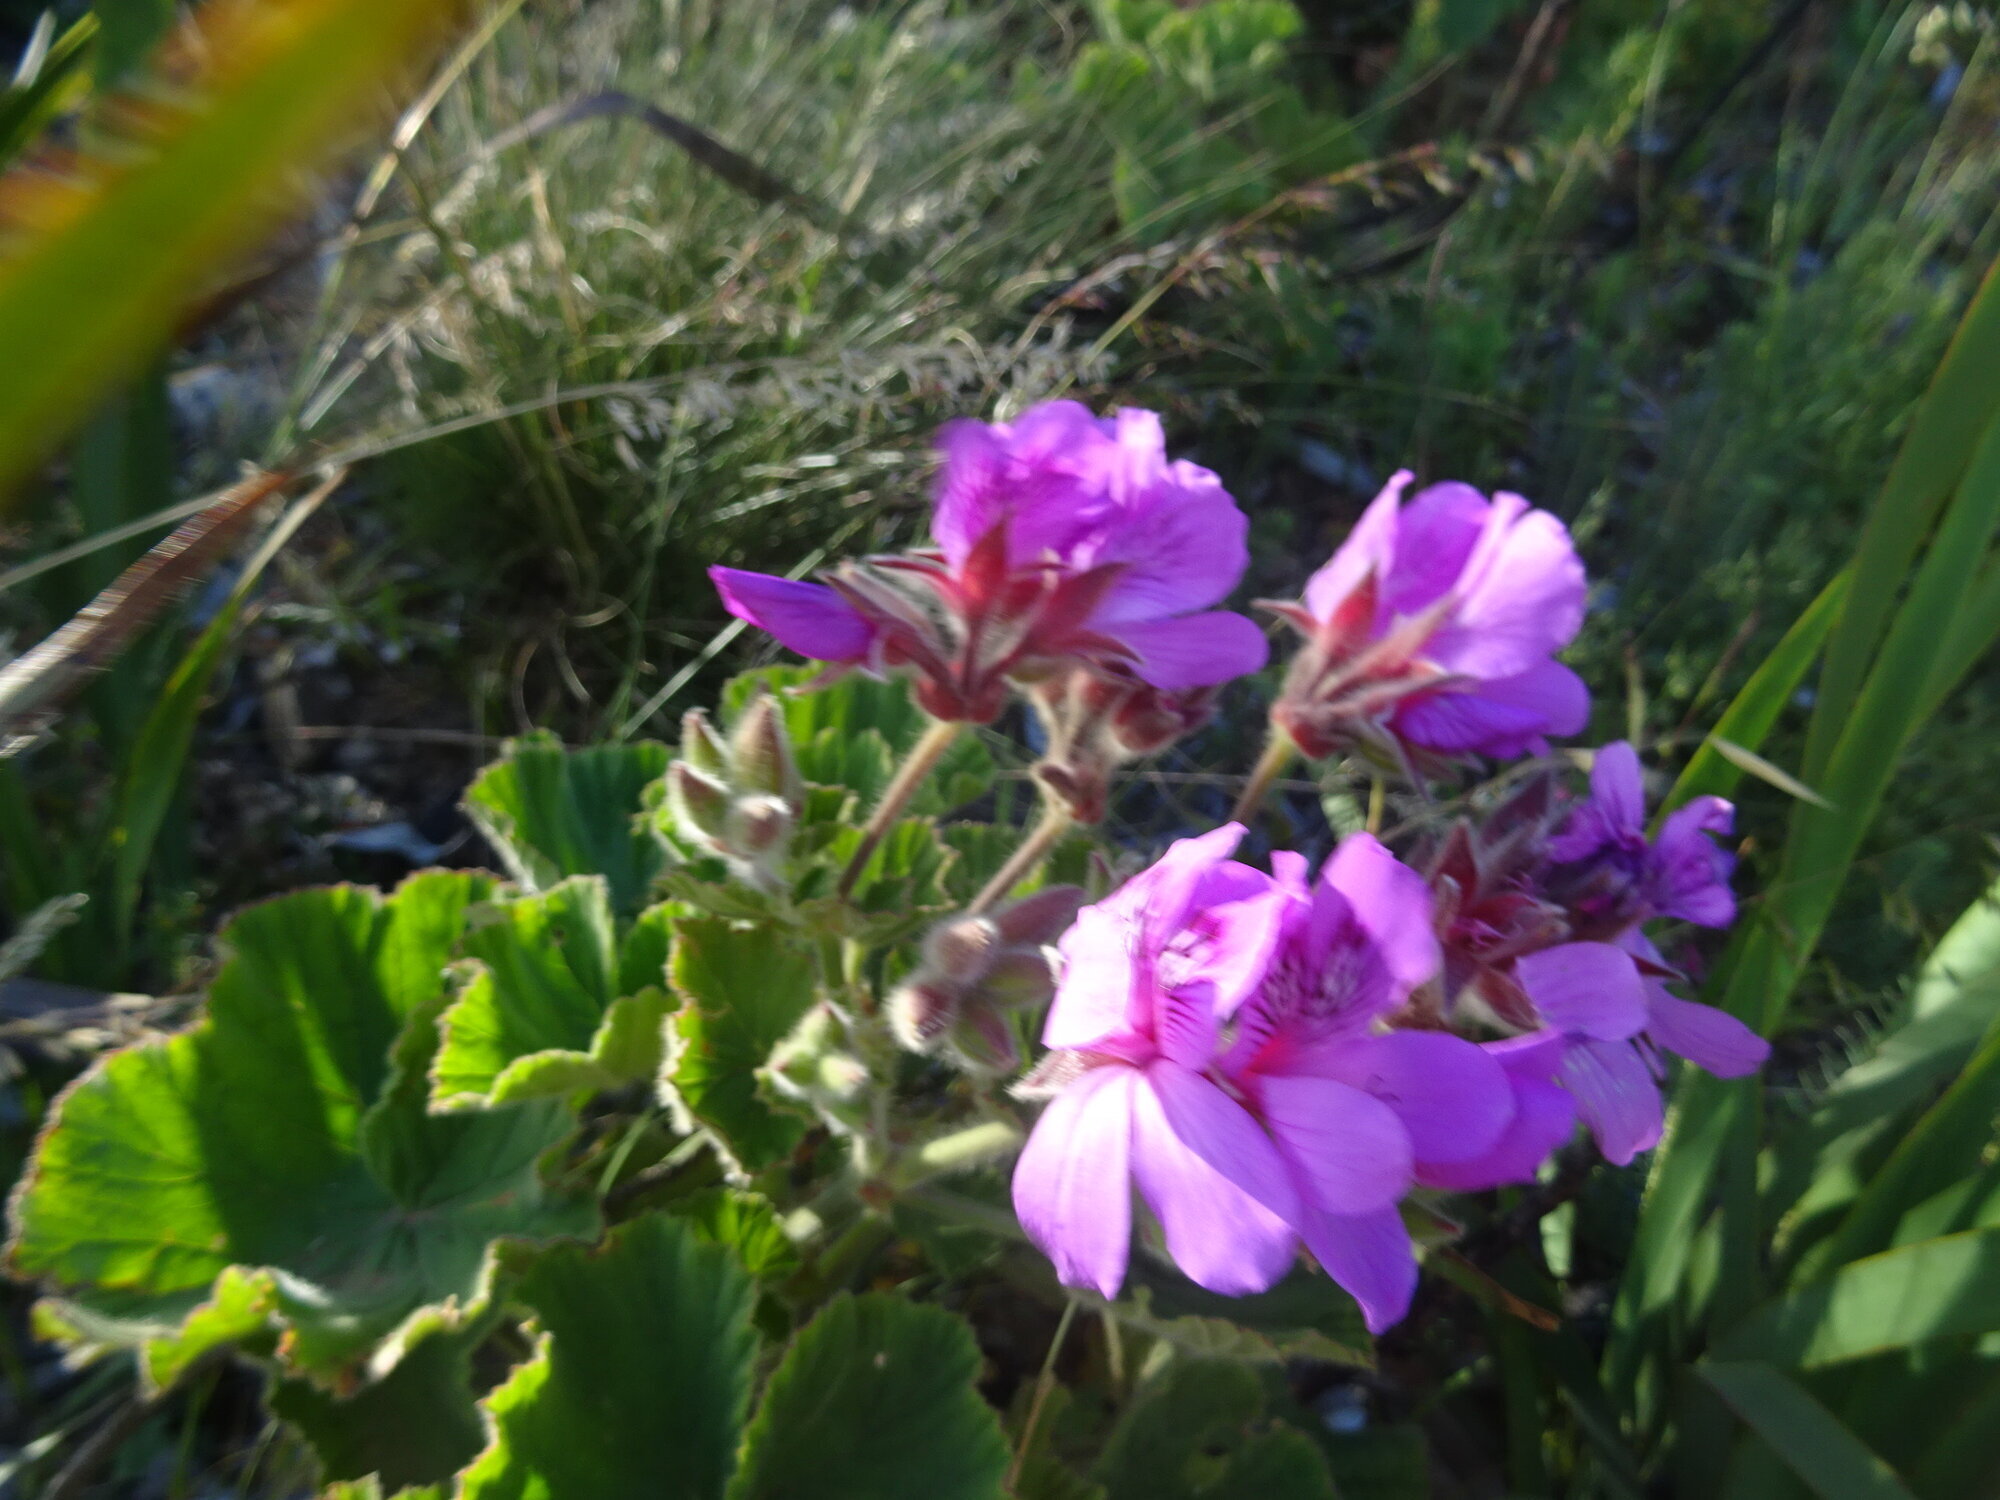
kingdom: Plantae
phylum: Tracheophyta
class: Magnoliopsida
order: Geraniales
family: Geraniaceae
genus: Pelargonium
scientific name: Pelargonium cucullatum
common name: Tree pelargonium
